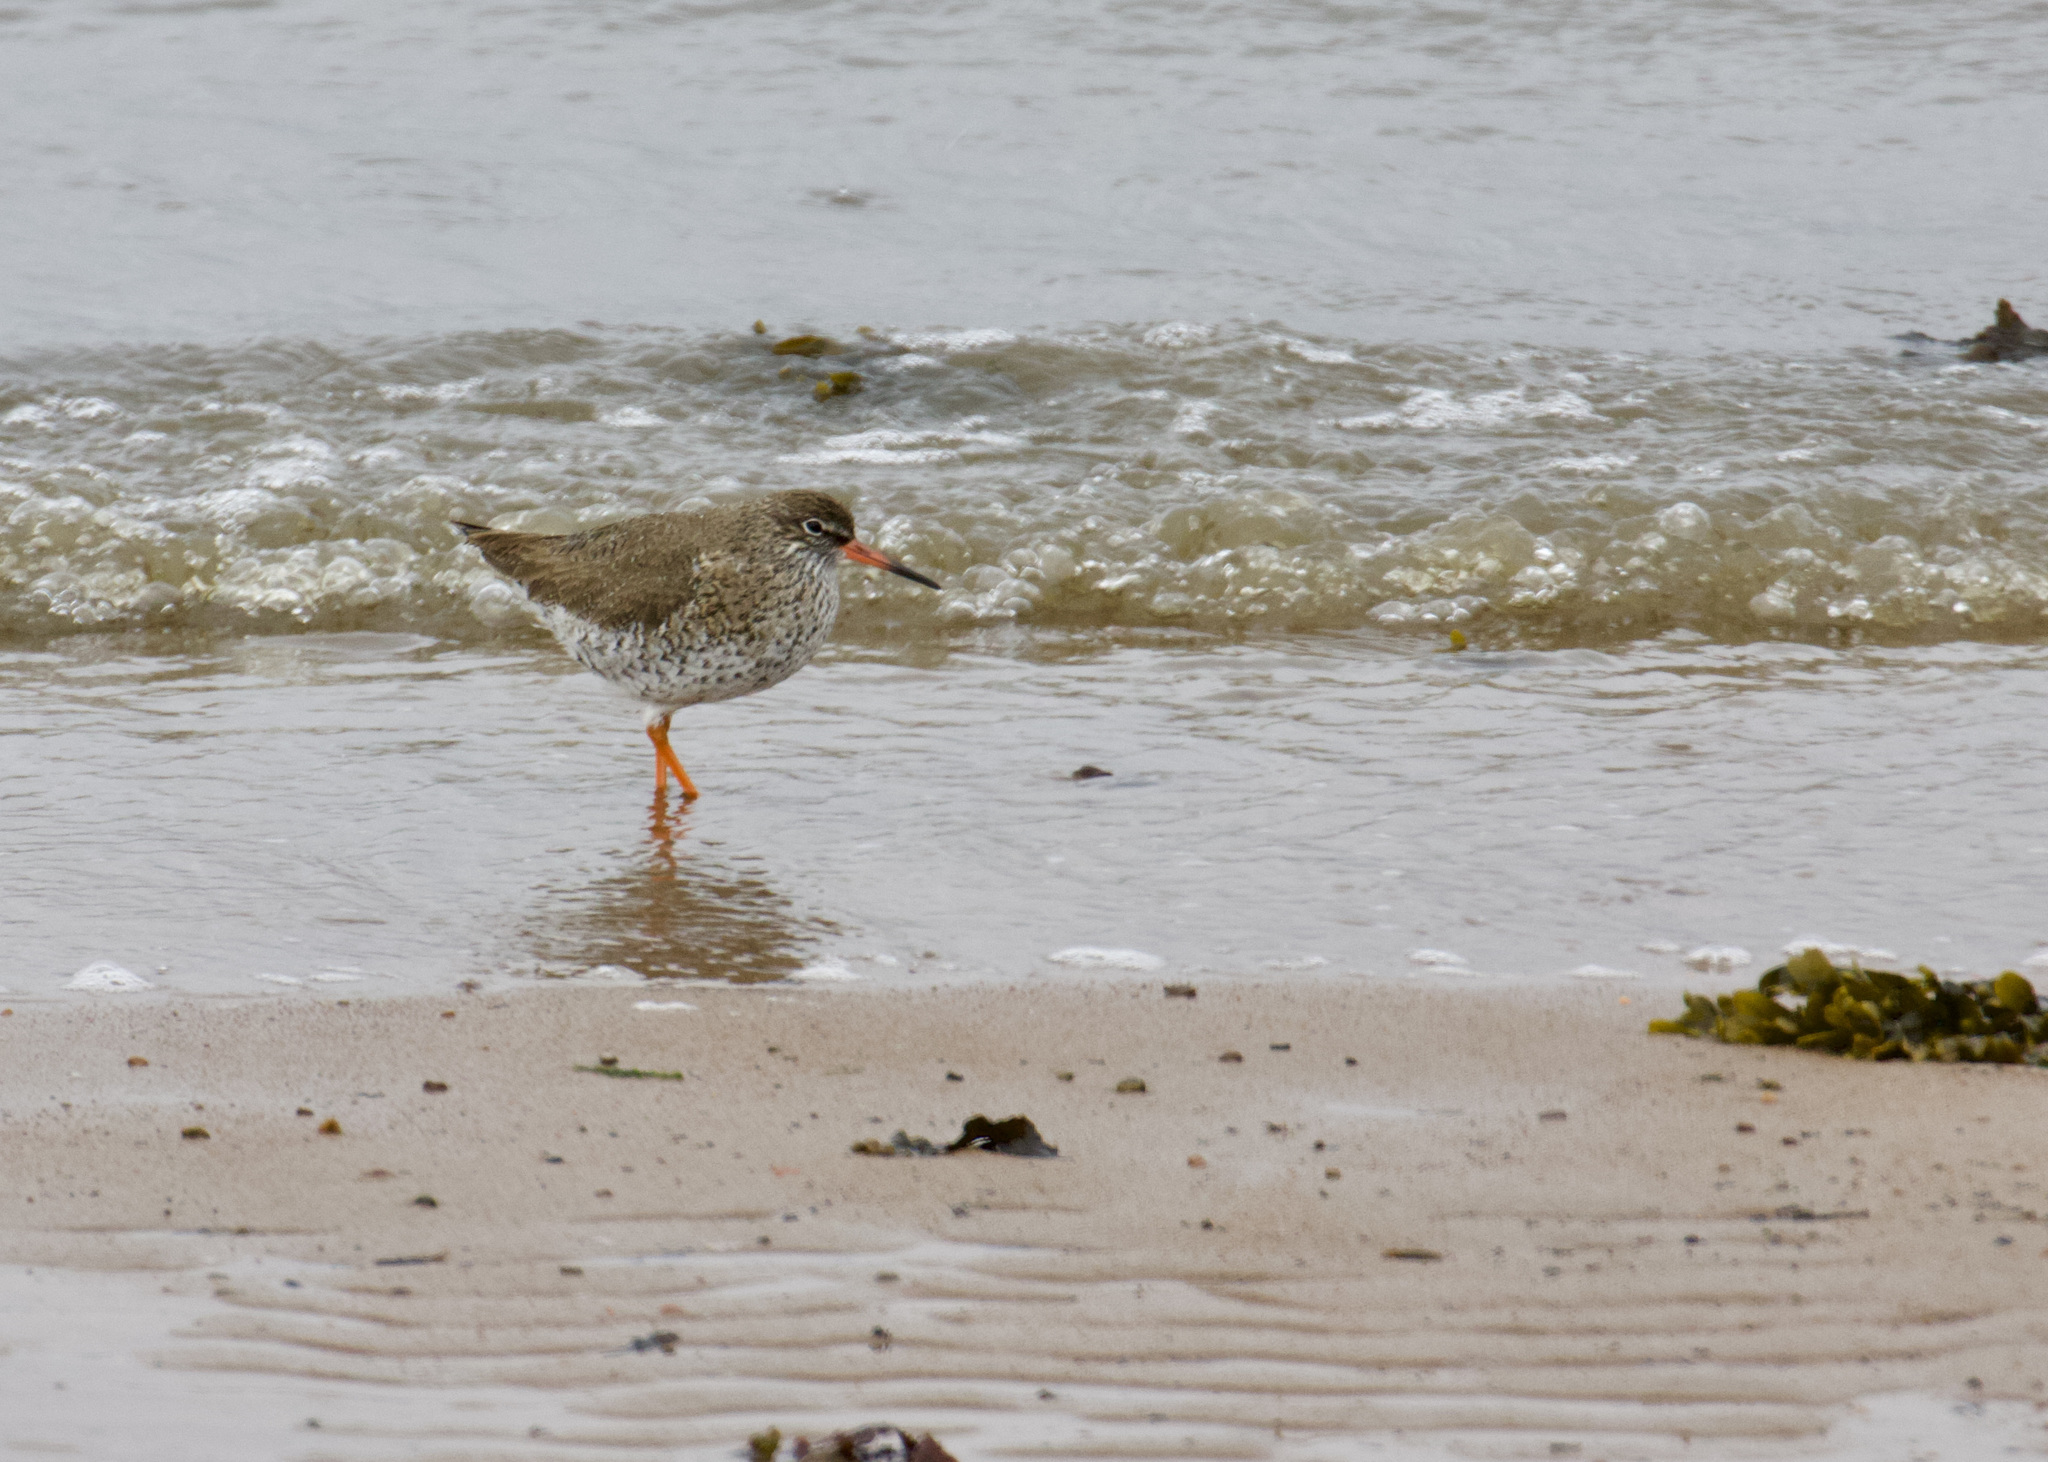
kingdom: Animalia
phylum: Chordata
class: Aves
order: Charadriiformes
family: Scolopacidae
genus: Tringa
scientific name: Tringa totanus
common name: Common redshank
